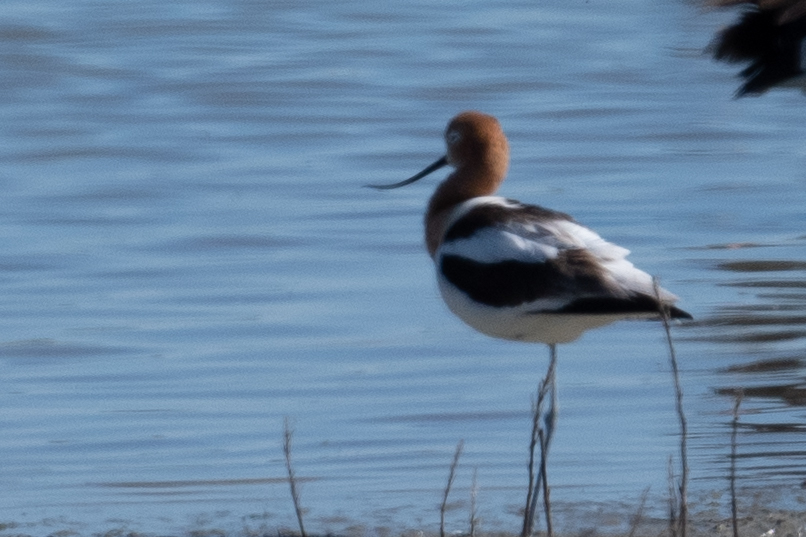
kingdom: Animalia
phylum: Chordata
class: Aves
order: Charadriiformes
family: Recurvirostridae
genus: Recurvirostra
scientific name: Recurvirostra americana
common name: American avocet
